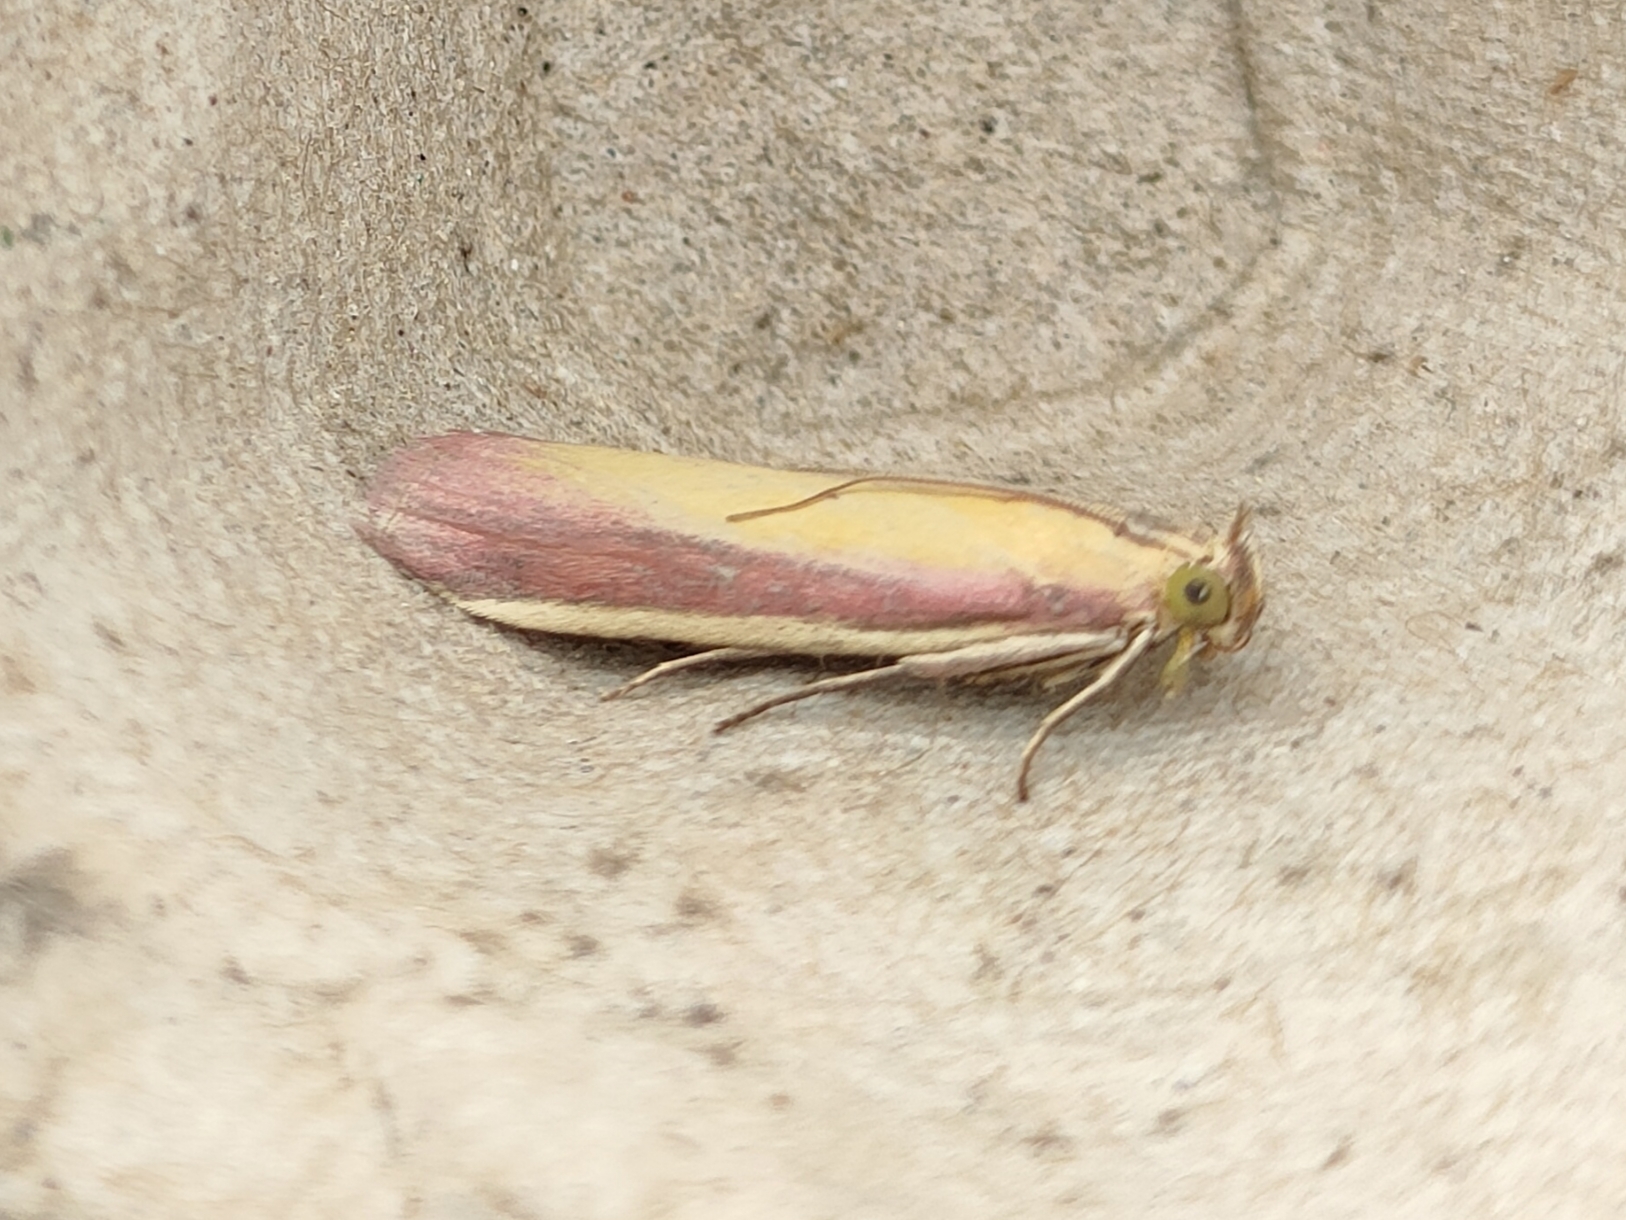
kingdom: Animalia
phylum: Arthropoda
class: Insecta
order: Lepidoptera
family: Pyralidae
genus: Oncocera
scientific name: Oncocera semirubella
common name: Rosy-striped knot-horn
